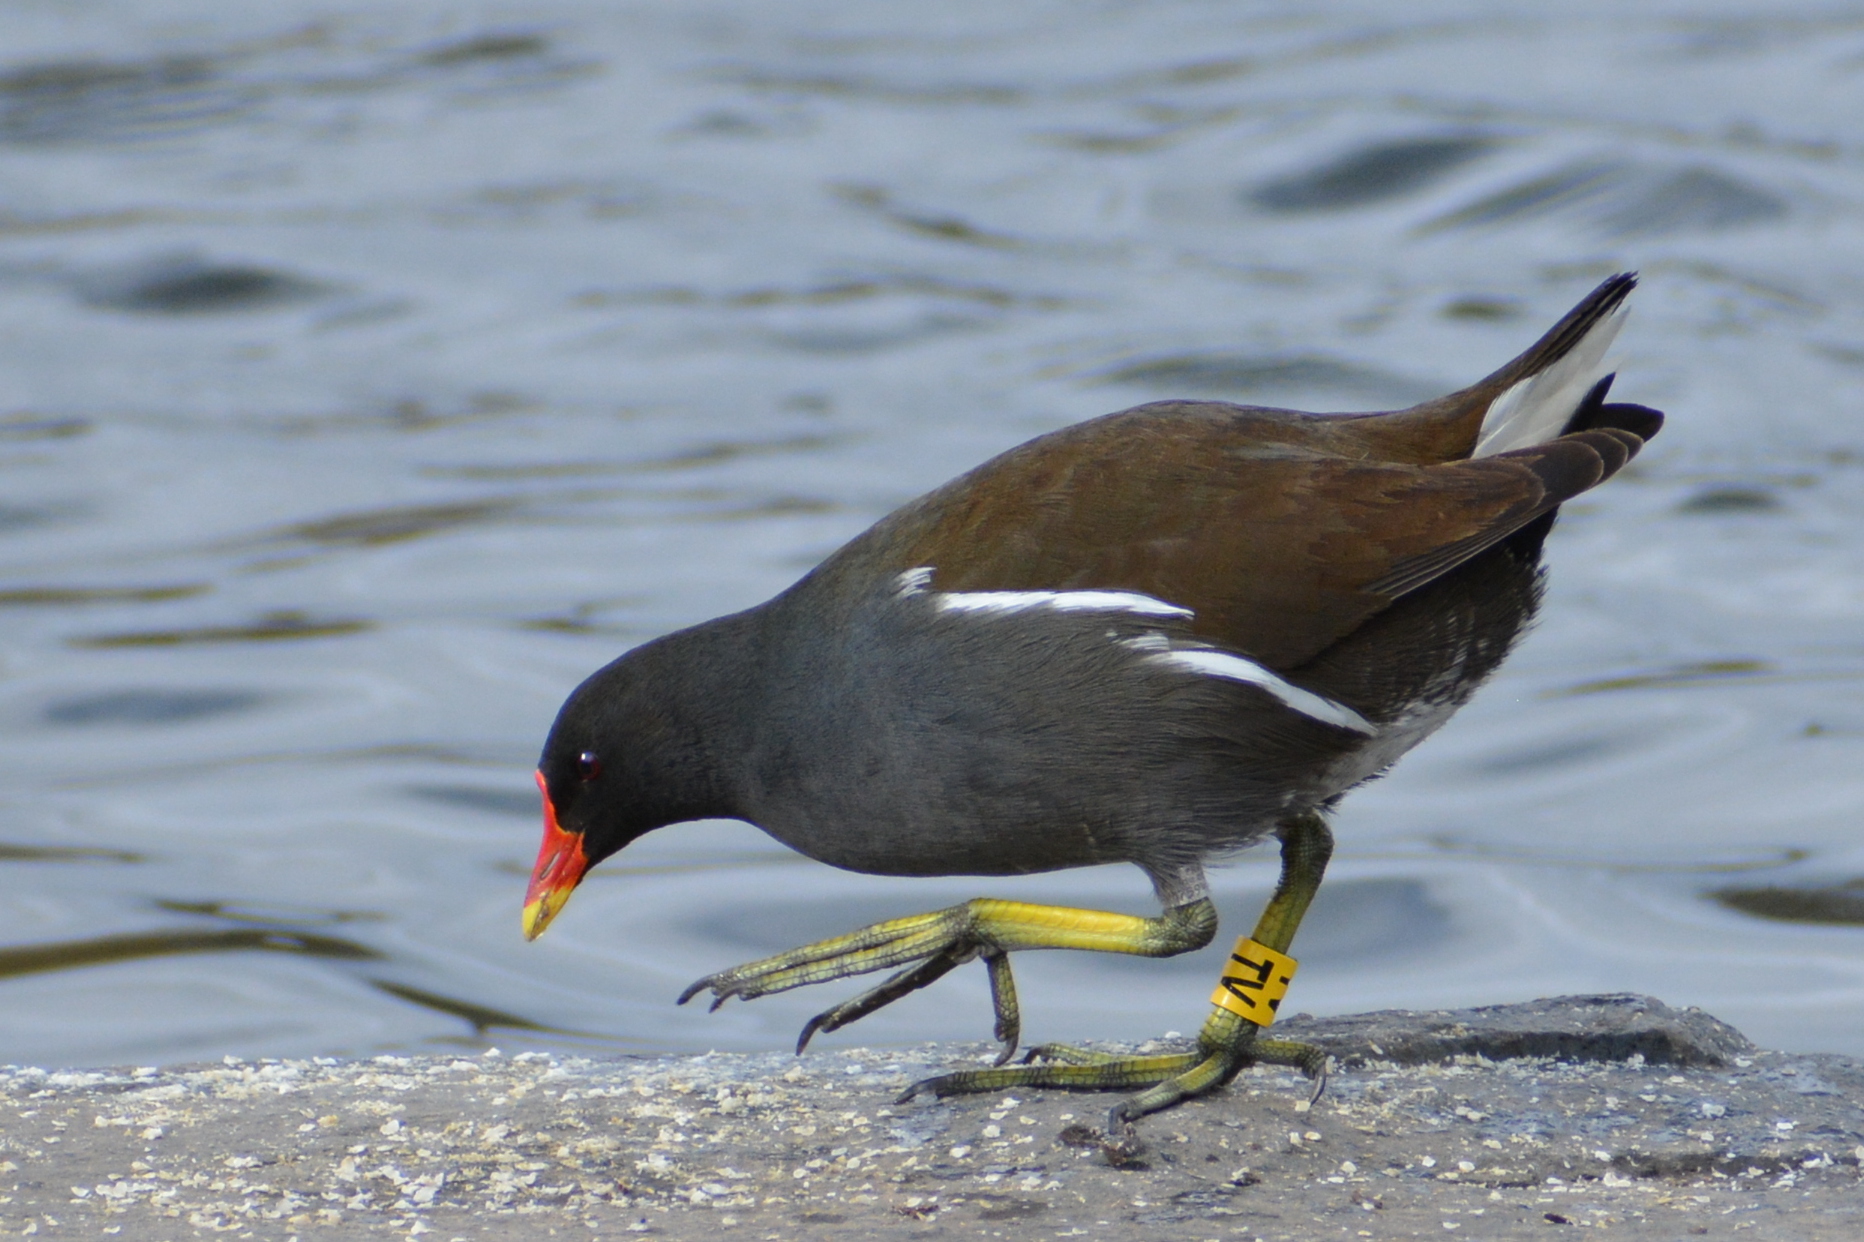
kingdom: Animalia
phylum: Chordata
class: Aves
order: Gruiformes
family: Rallidae
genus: Gallinula
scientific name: Gallinula chloropus
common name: Common moorhen
